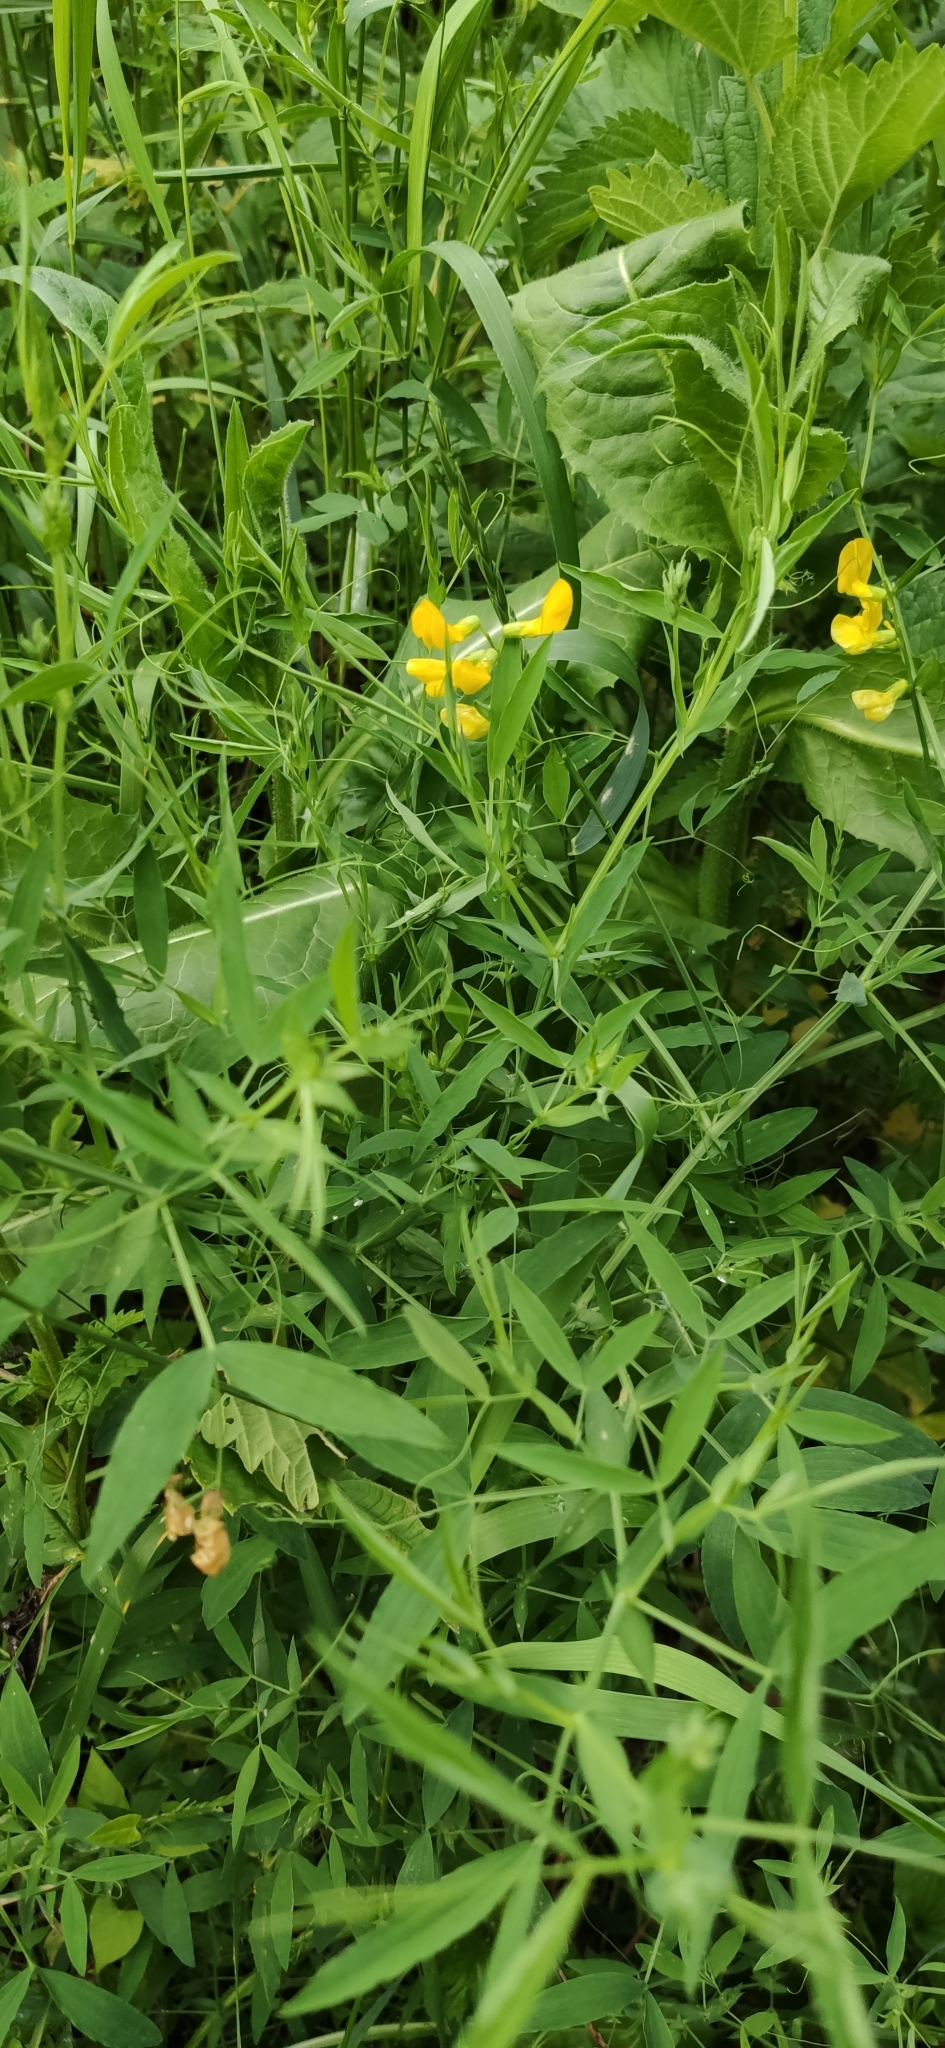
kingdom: Plantae
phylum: Tracheophyta
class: Magnoliopsida
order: Fabales
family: Fabaceae
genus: Lathyrus
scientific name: Lathyrus pratensis
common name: Meadow vetchling
